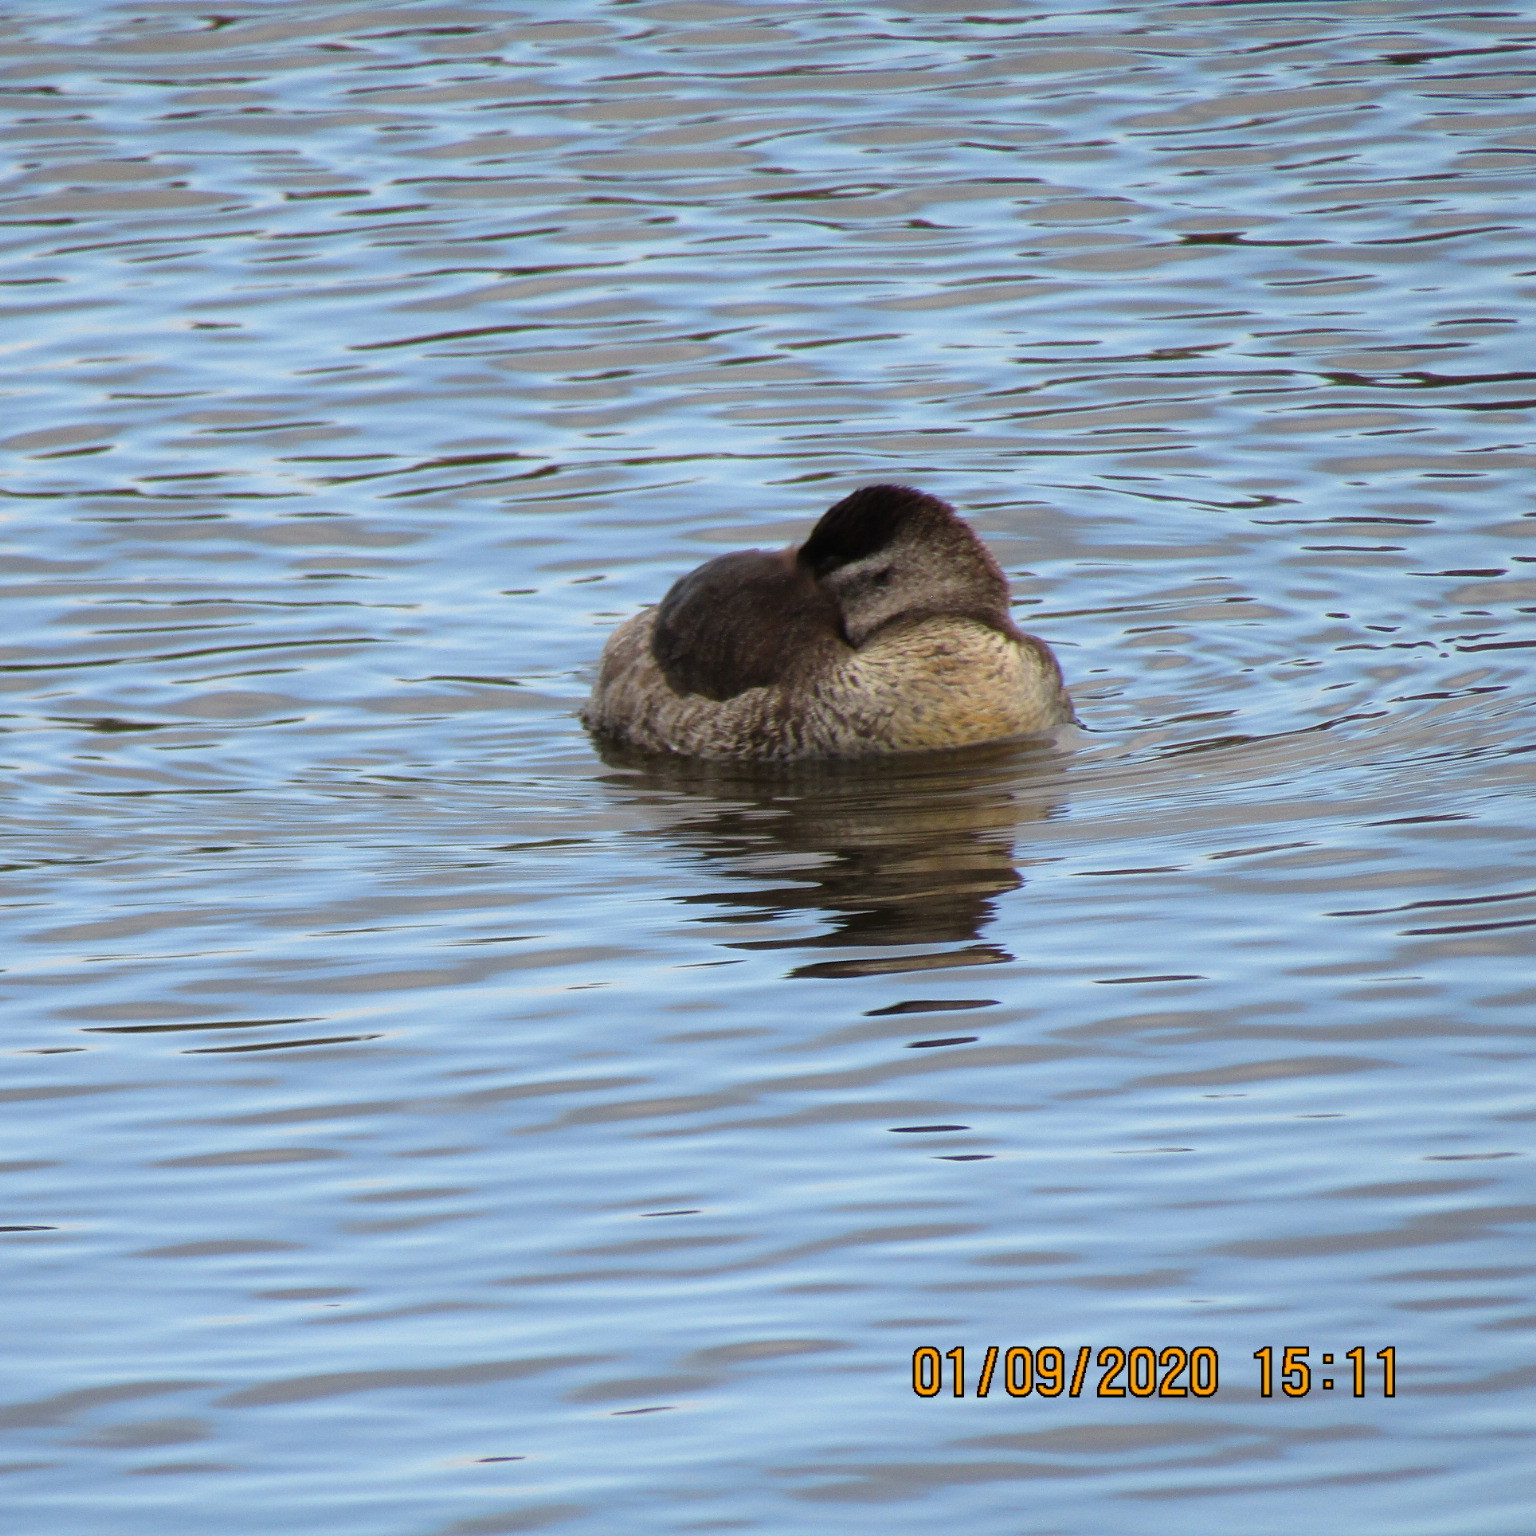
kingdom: Animalia
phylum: Chordata
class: Aves
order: Anseriformes
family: Anatidae
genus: Oxyura
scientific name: Oxyura jamaicensis
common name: Ruddy duck
